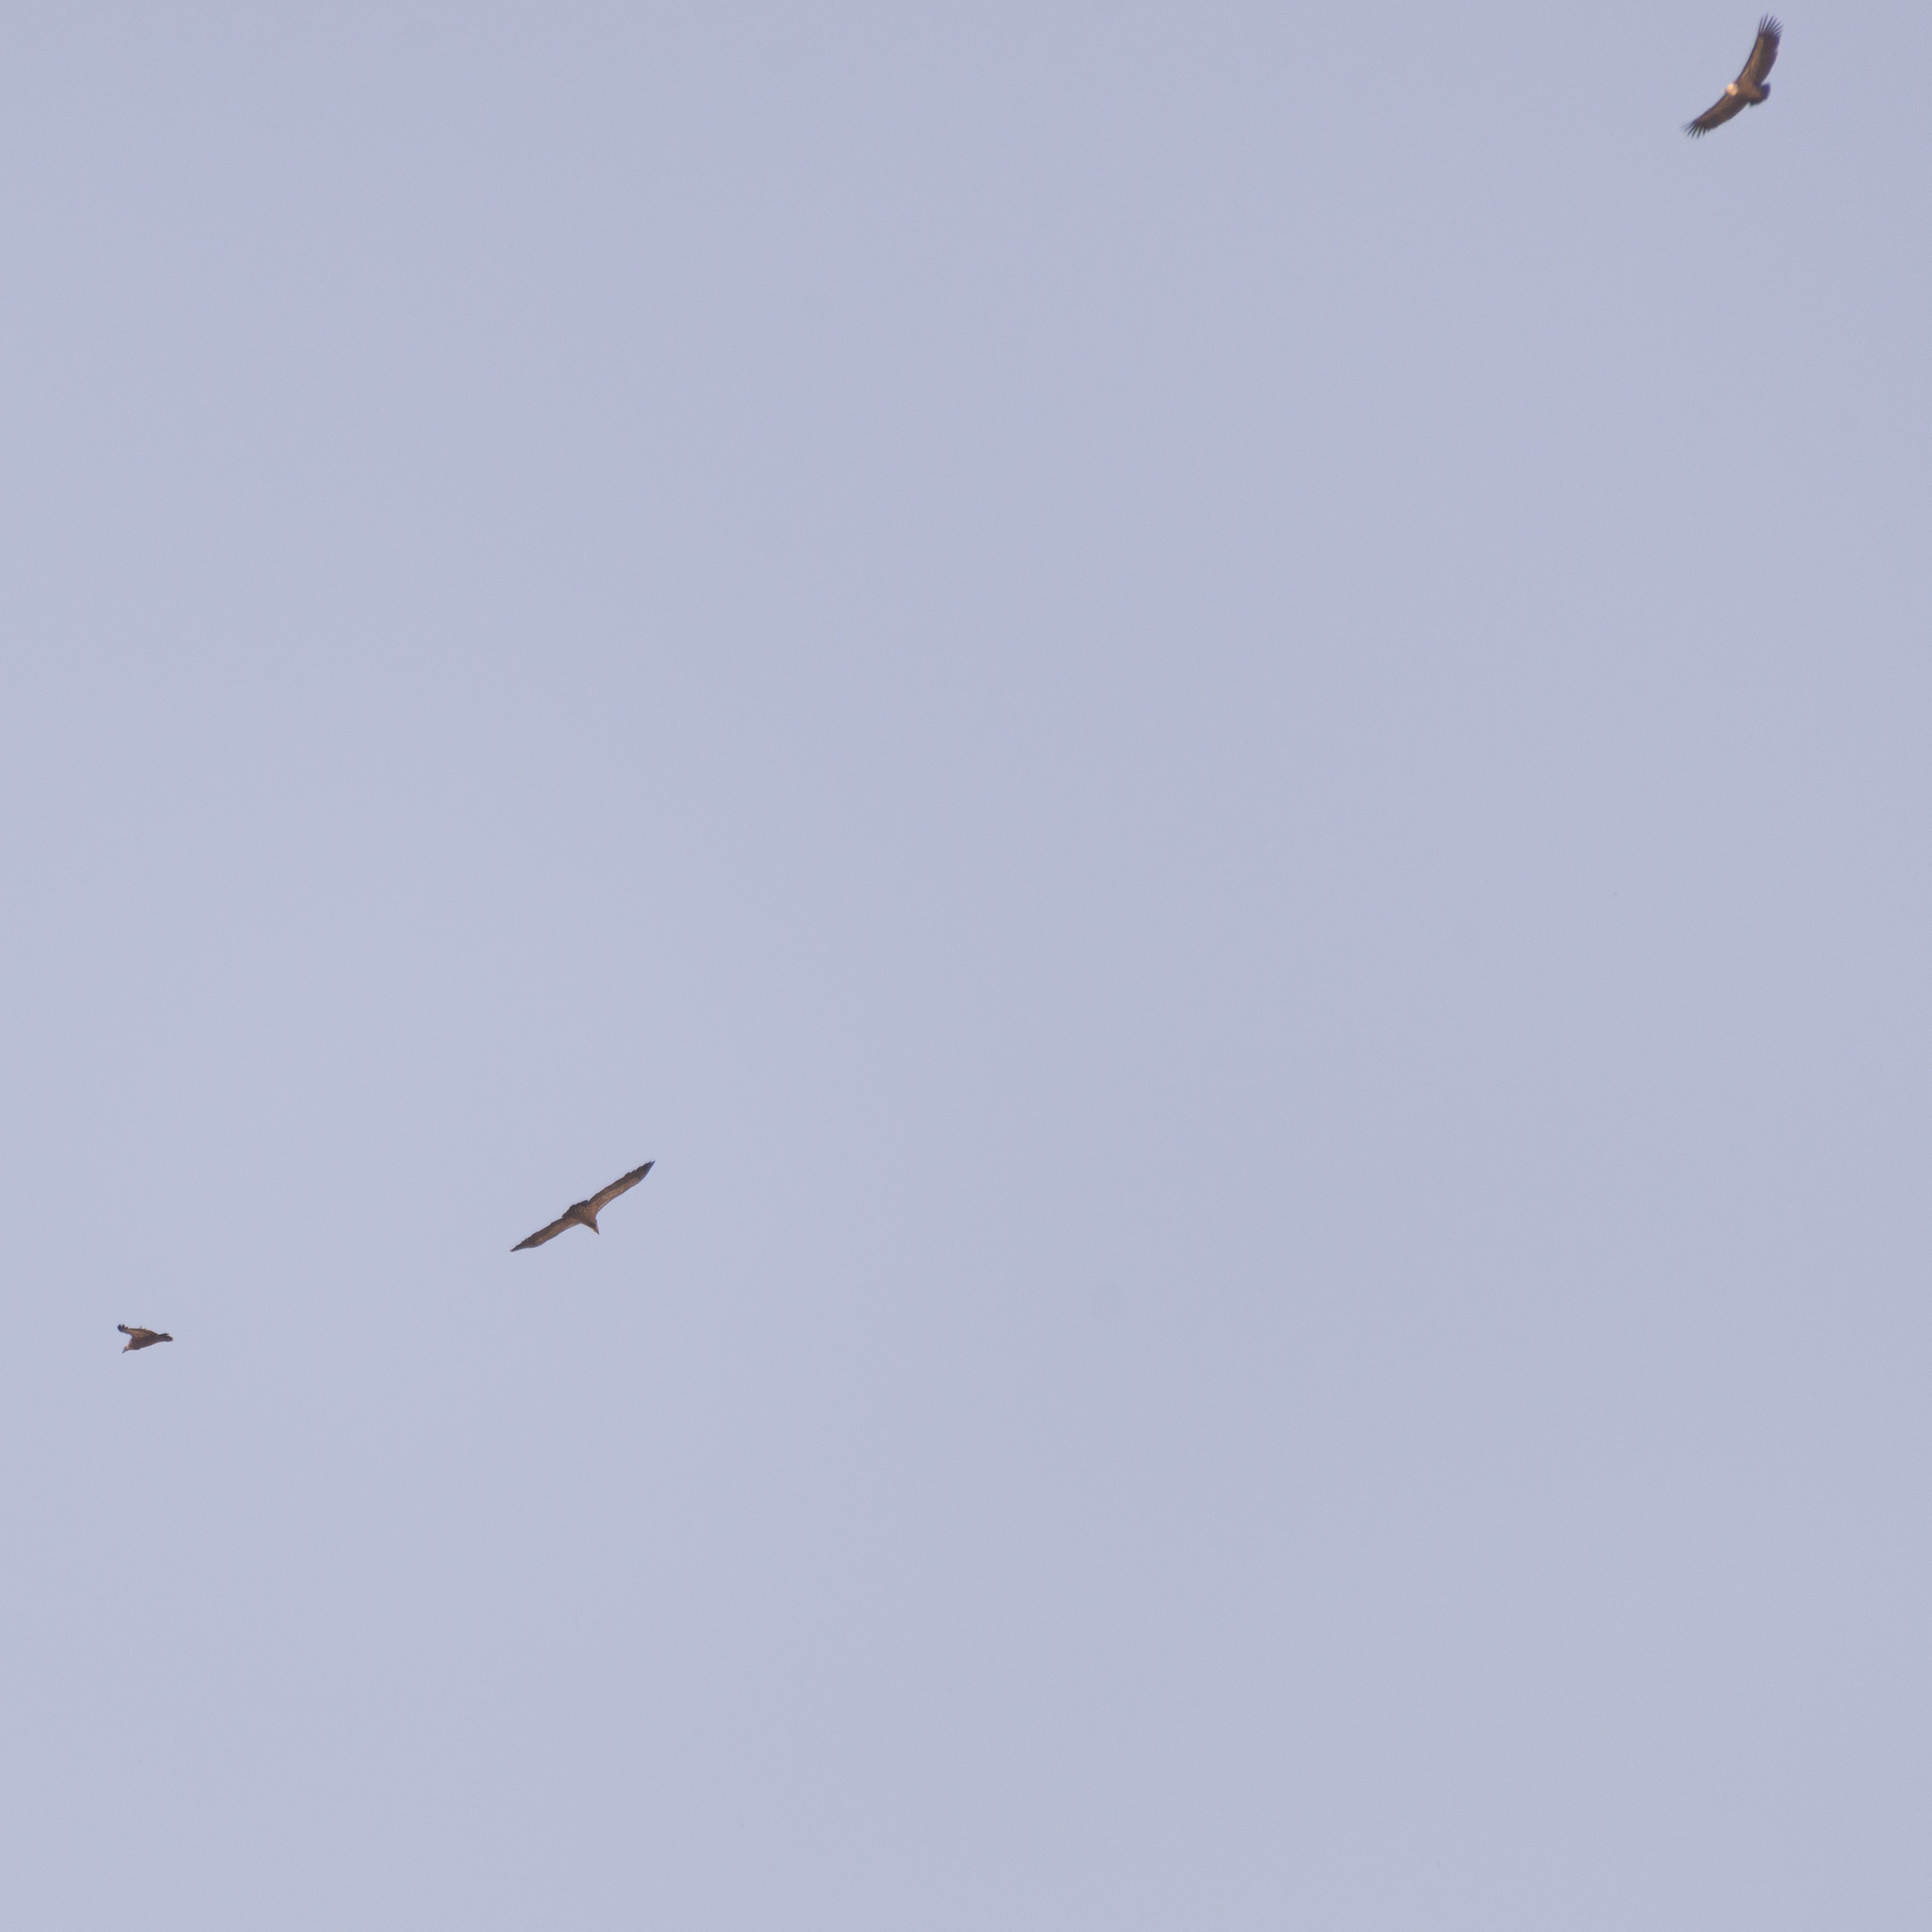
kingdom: Animalia
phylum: Chordata
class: Aves
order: Accipitriformes
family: Accipitridae
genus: Gyps
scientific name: Gyps fulvus
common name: Griffon vulture
